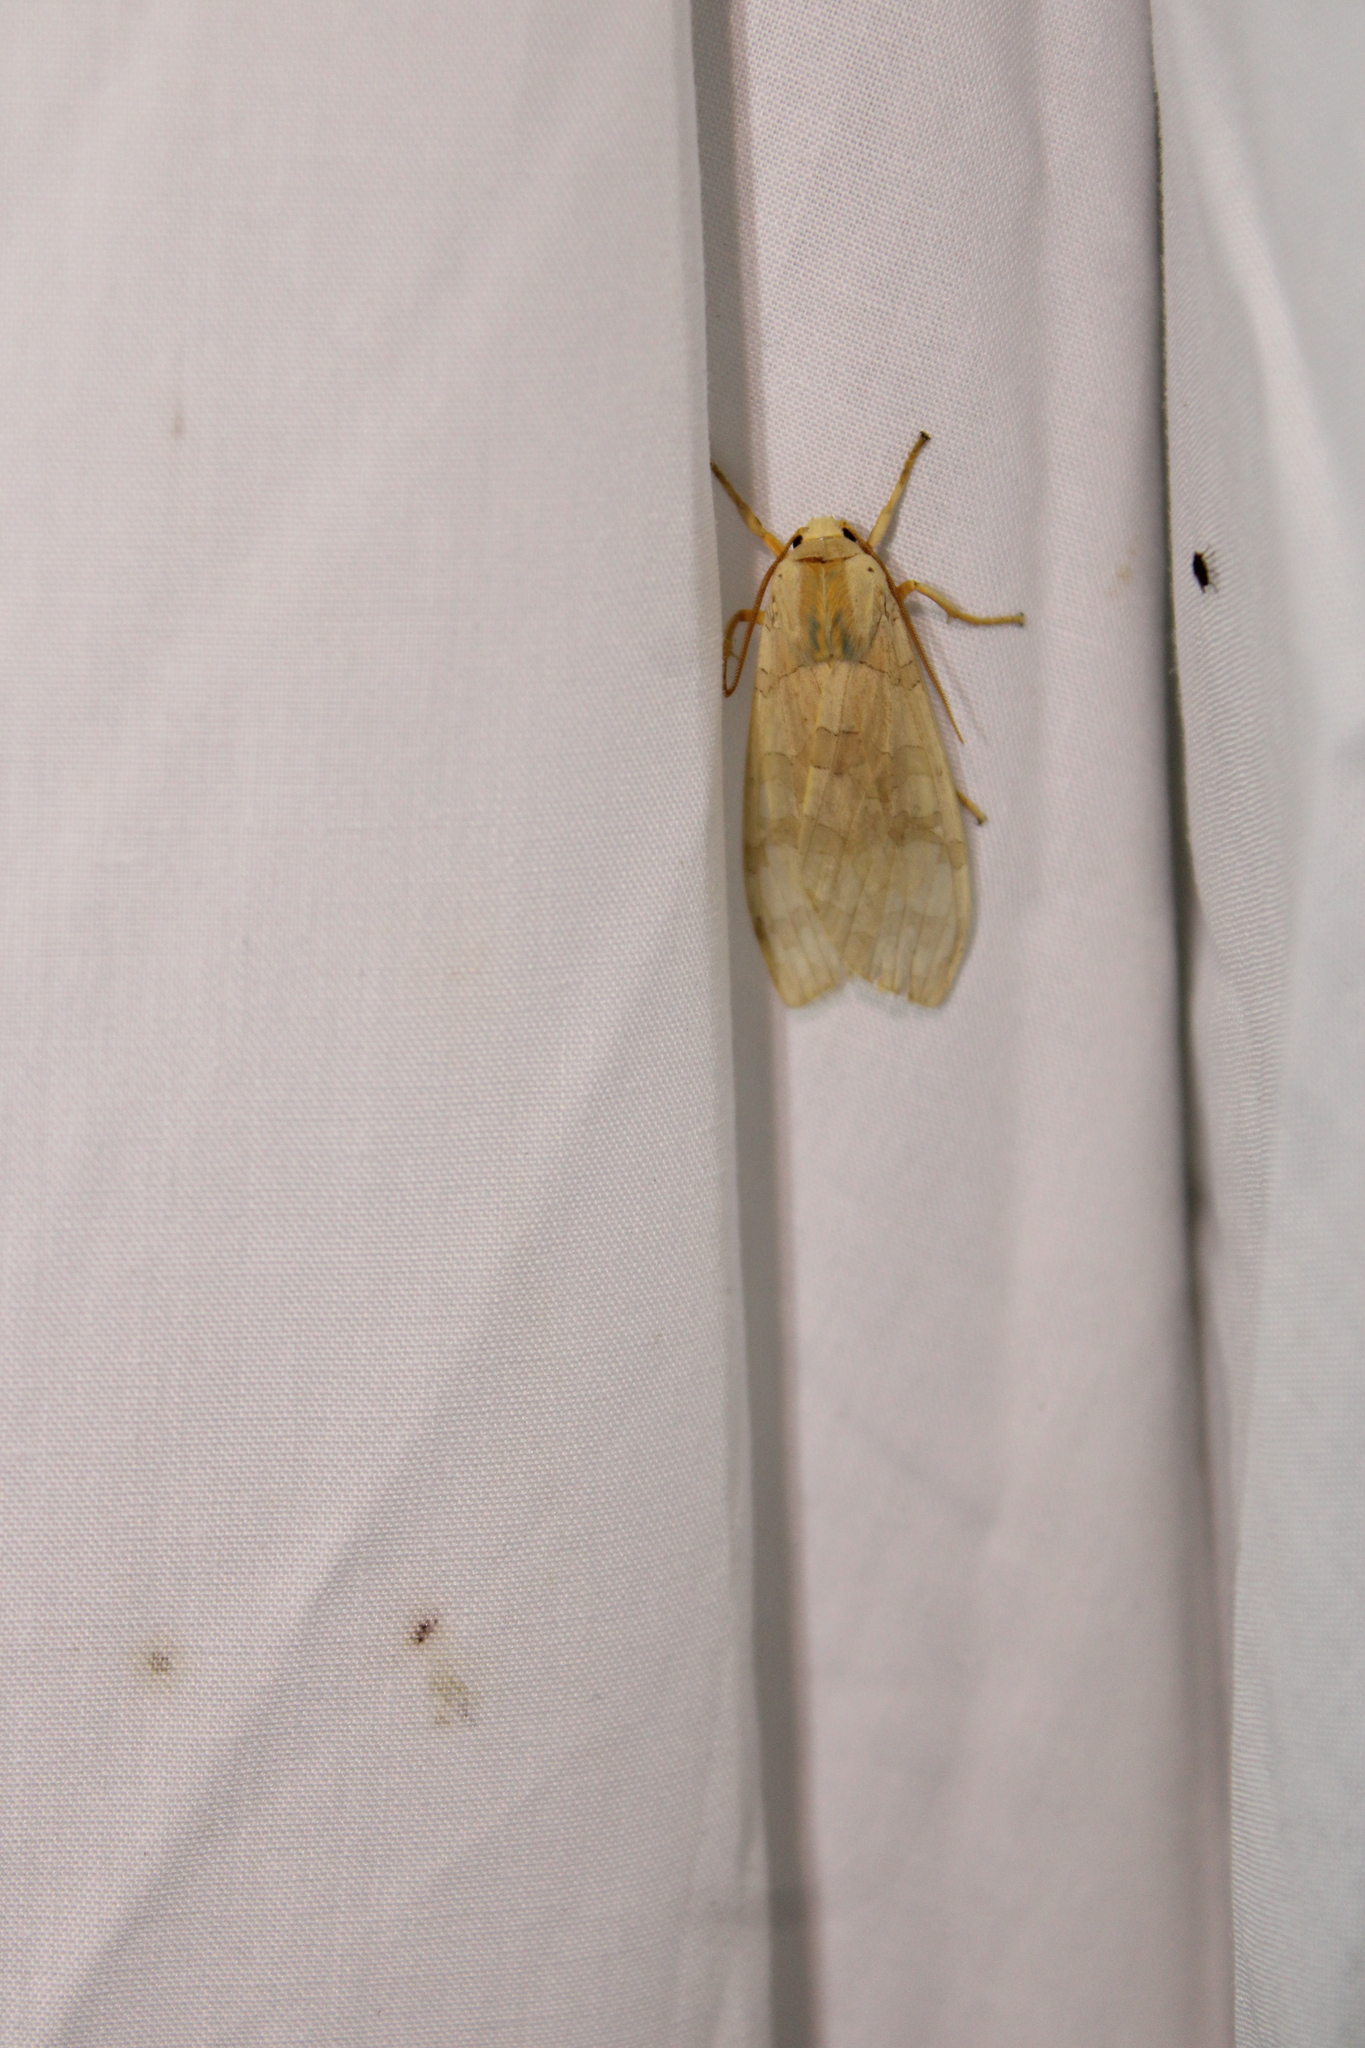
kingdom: Animalia
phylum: Arthropoda
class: Insecta
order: Lepidoptera
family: Erebidae
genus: Halysidota
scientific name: Halysidota
